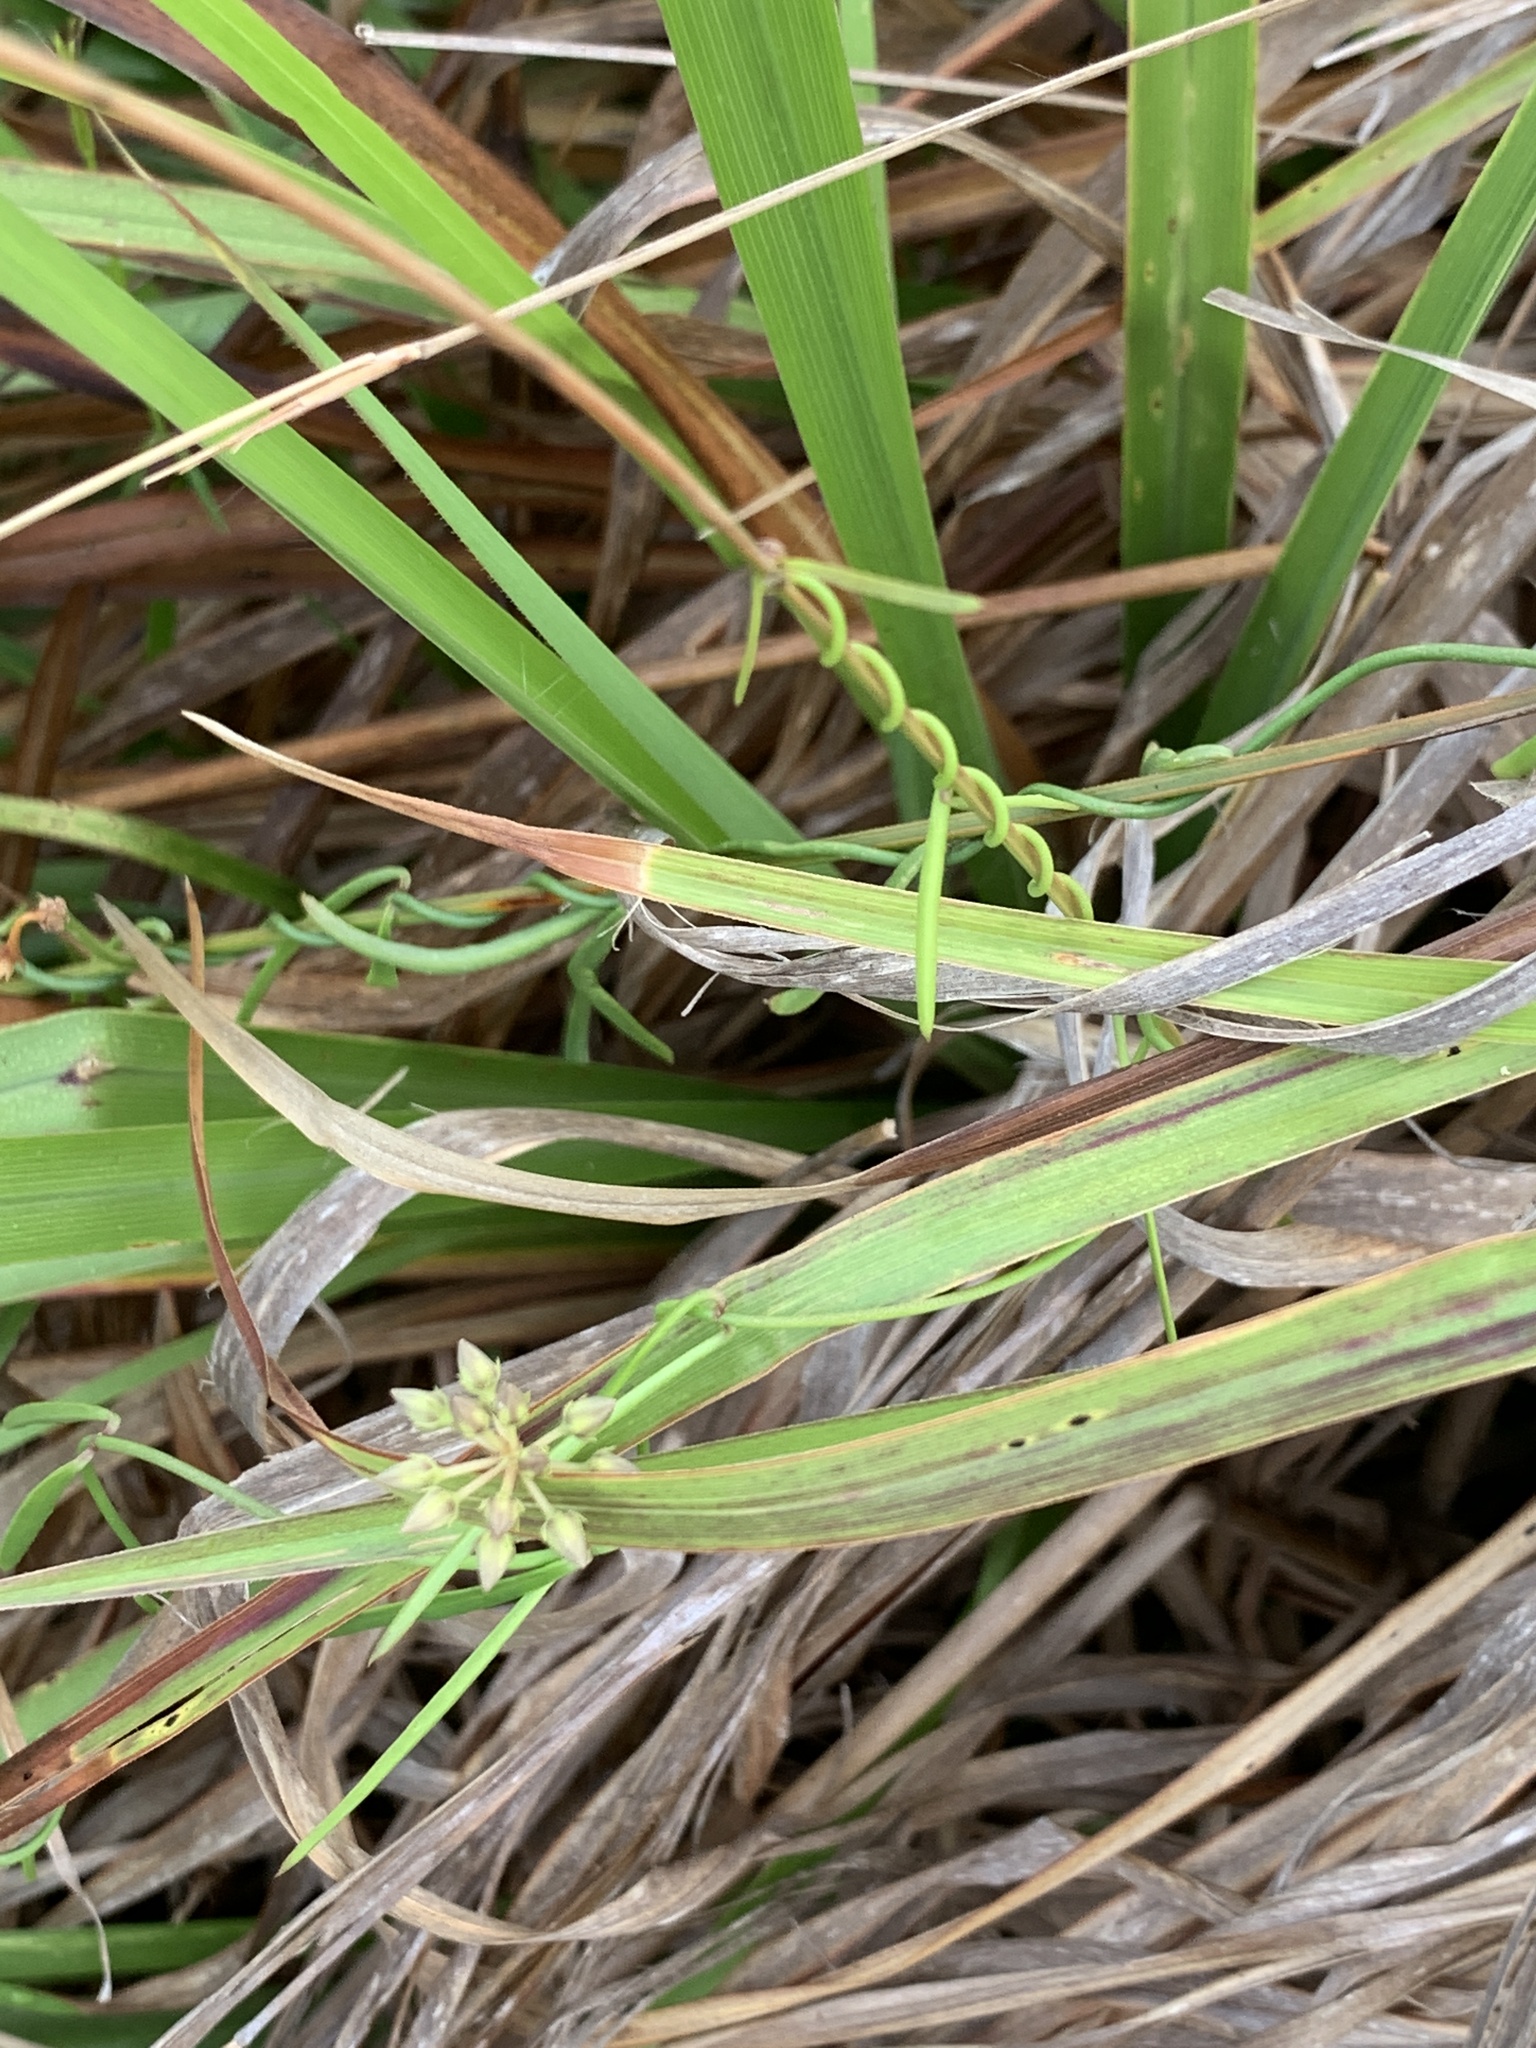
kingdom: Plantae
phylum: Tracheophyta
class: Magnoliopsida
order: Gentianales
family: Apocynaceae
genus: Pattalias
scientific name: Pattalias
